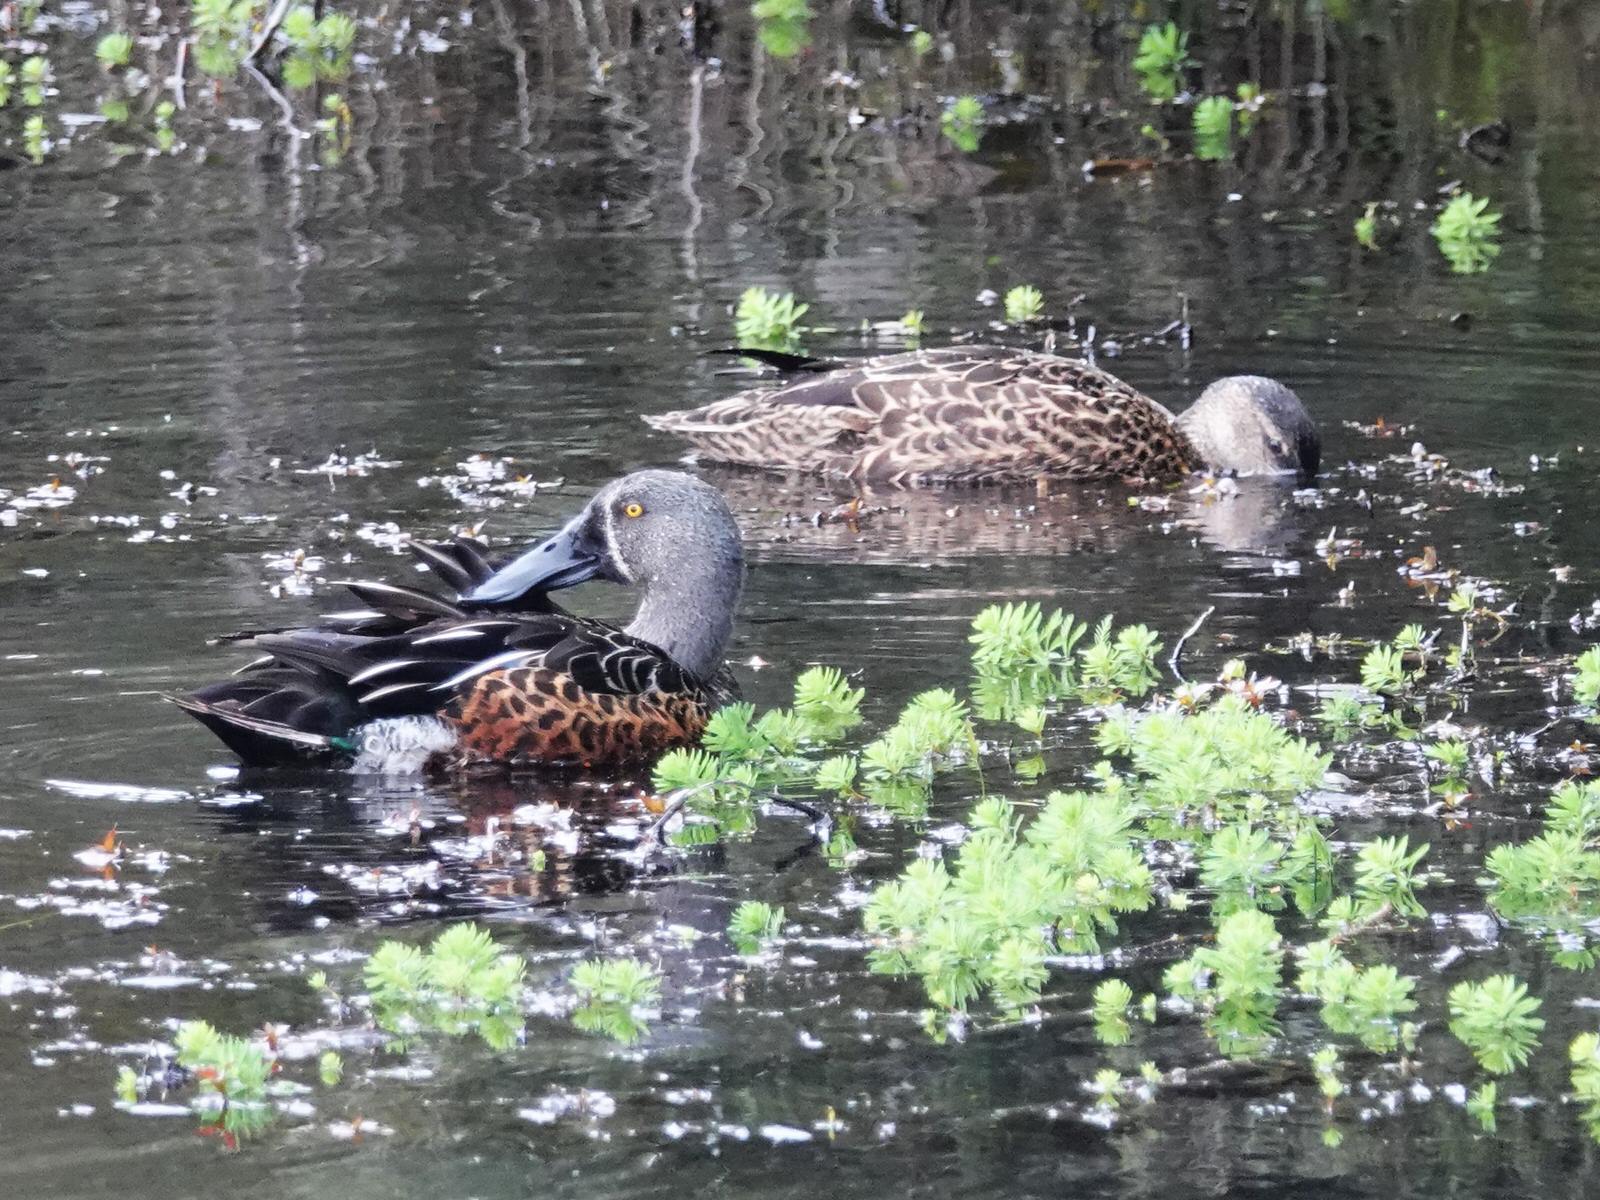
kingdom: Animalia
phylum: Chordata
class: Aves
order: Anseriformes
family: Anatidae
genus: Spatula
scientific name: Spatula rhynchotis
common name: Australian shoveler
